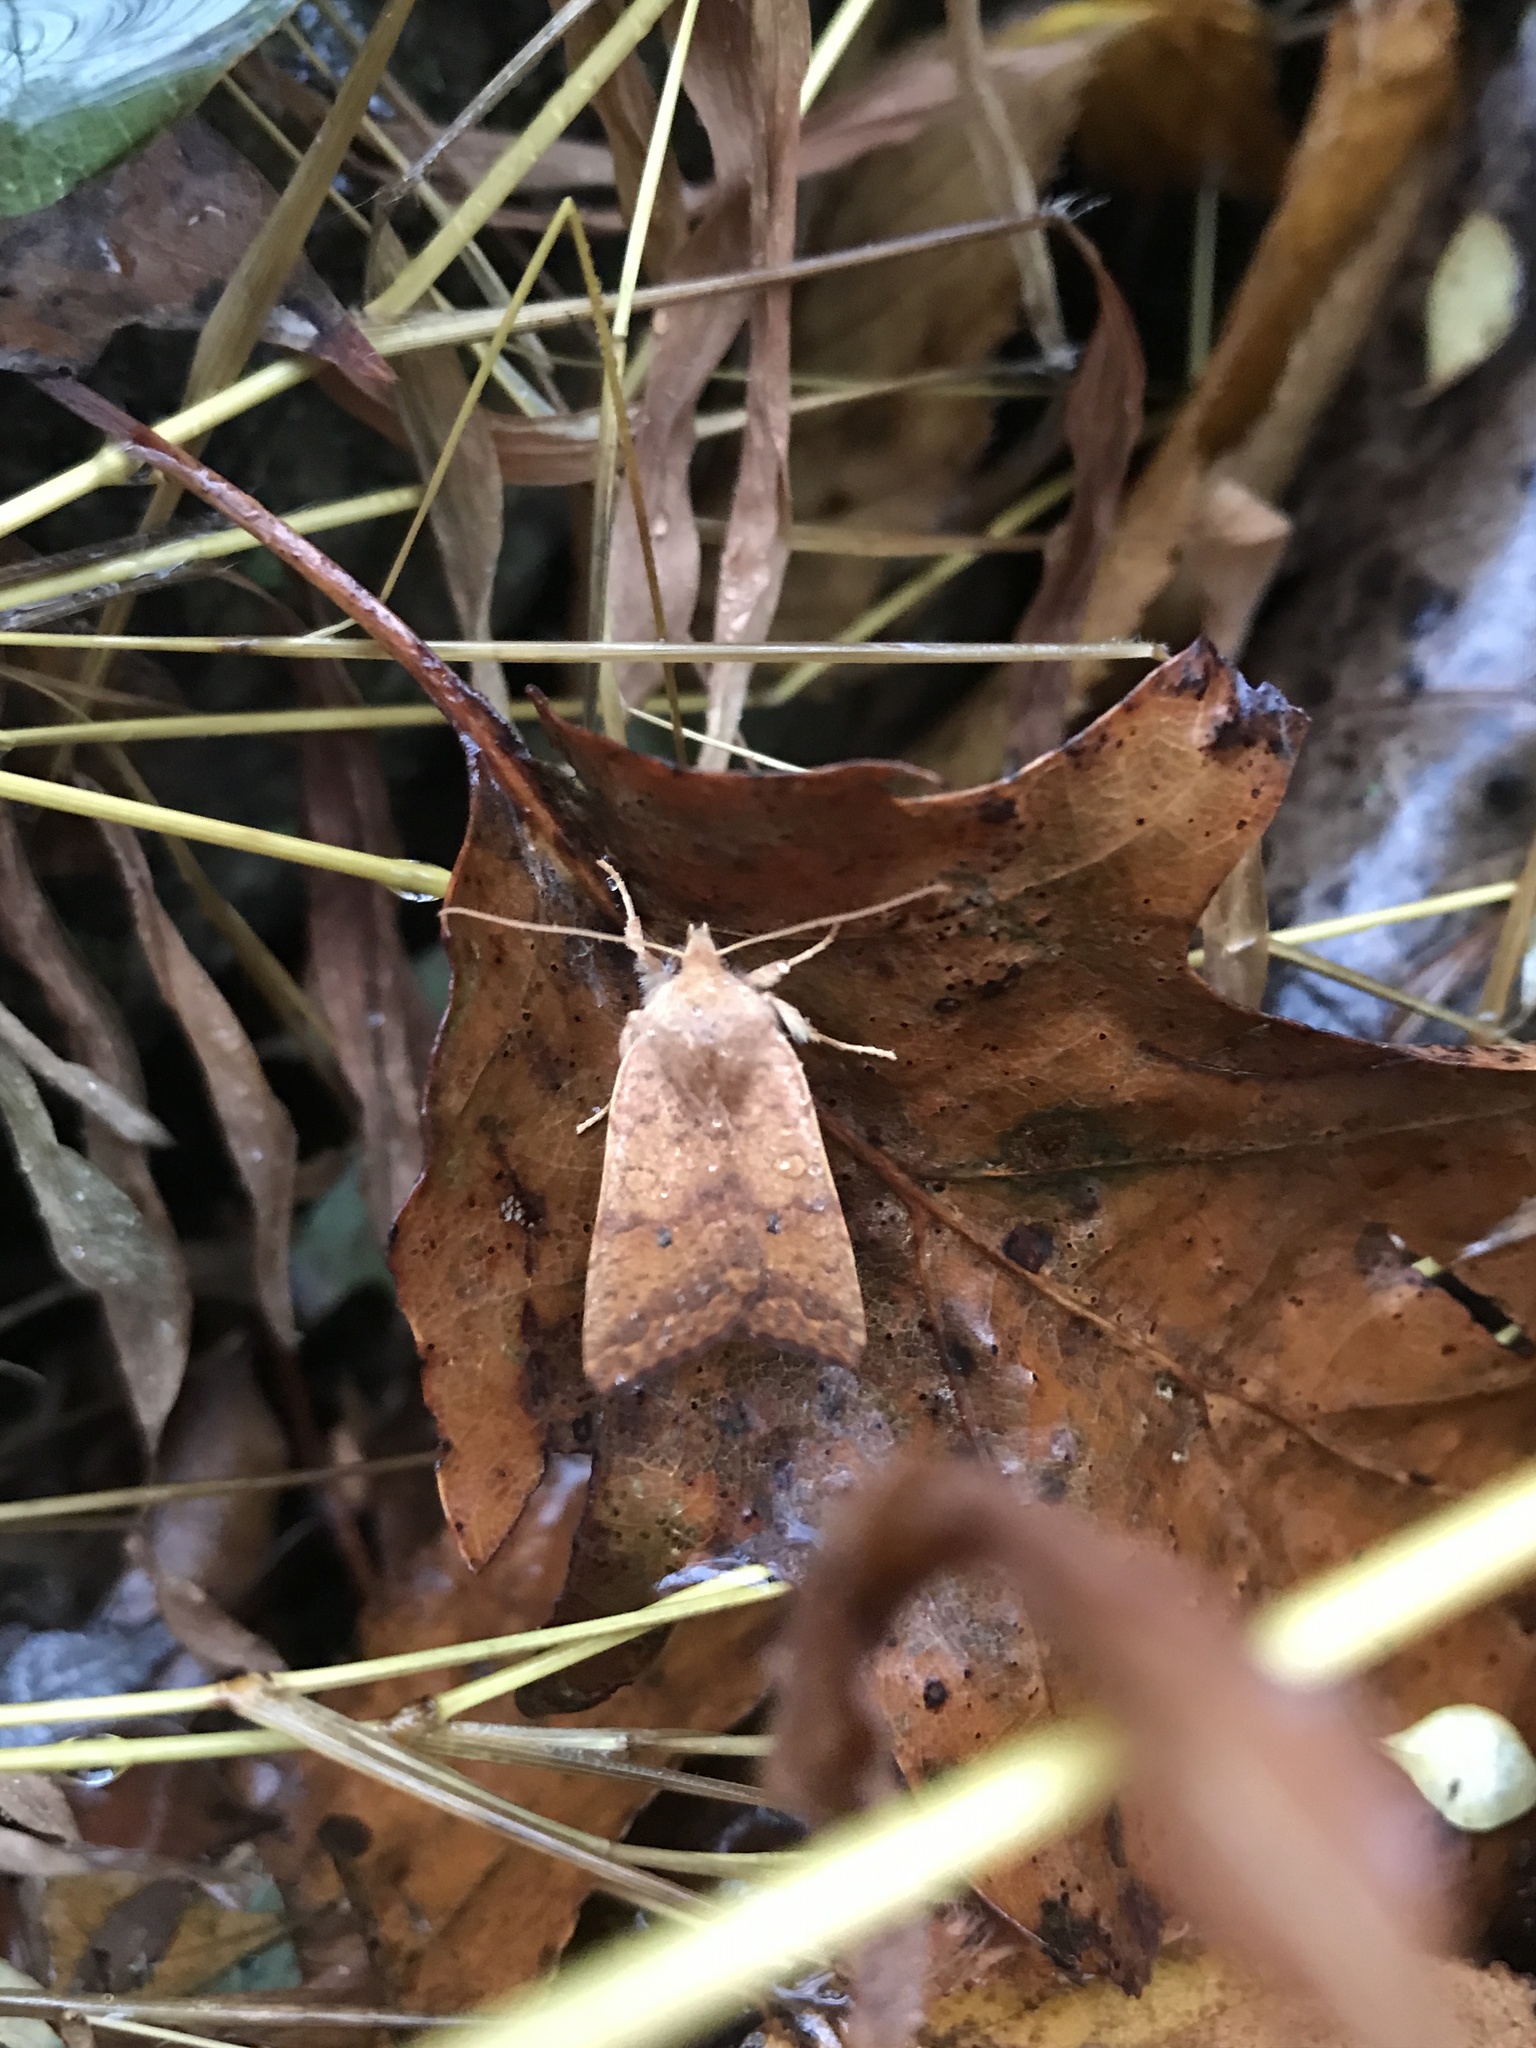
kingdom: Animalia
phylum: Arthropoda
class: Insecta
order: Lepidoptera
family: Noctuidae
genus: Agrochola
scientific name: Agrochola bicolorago
